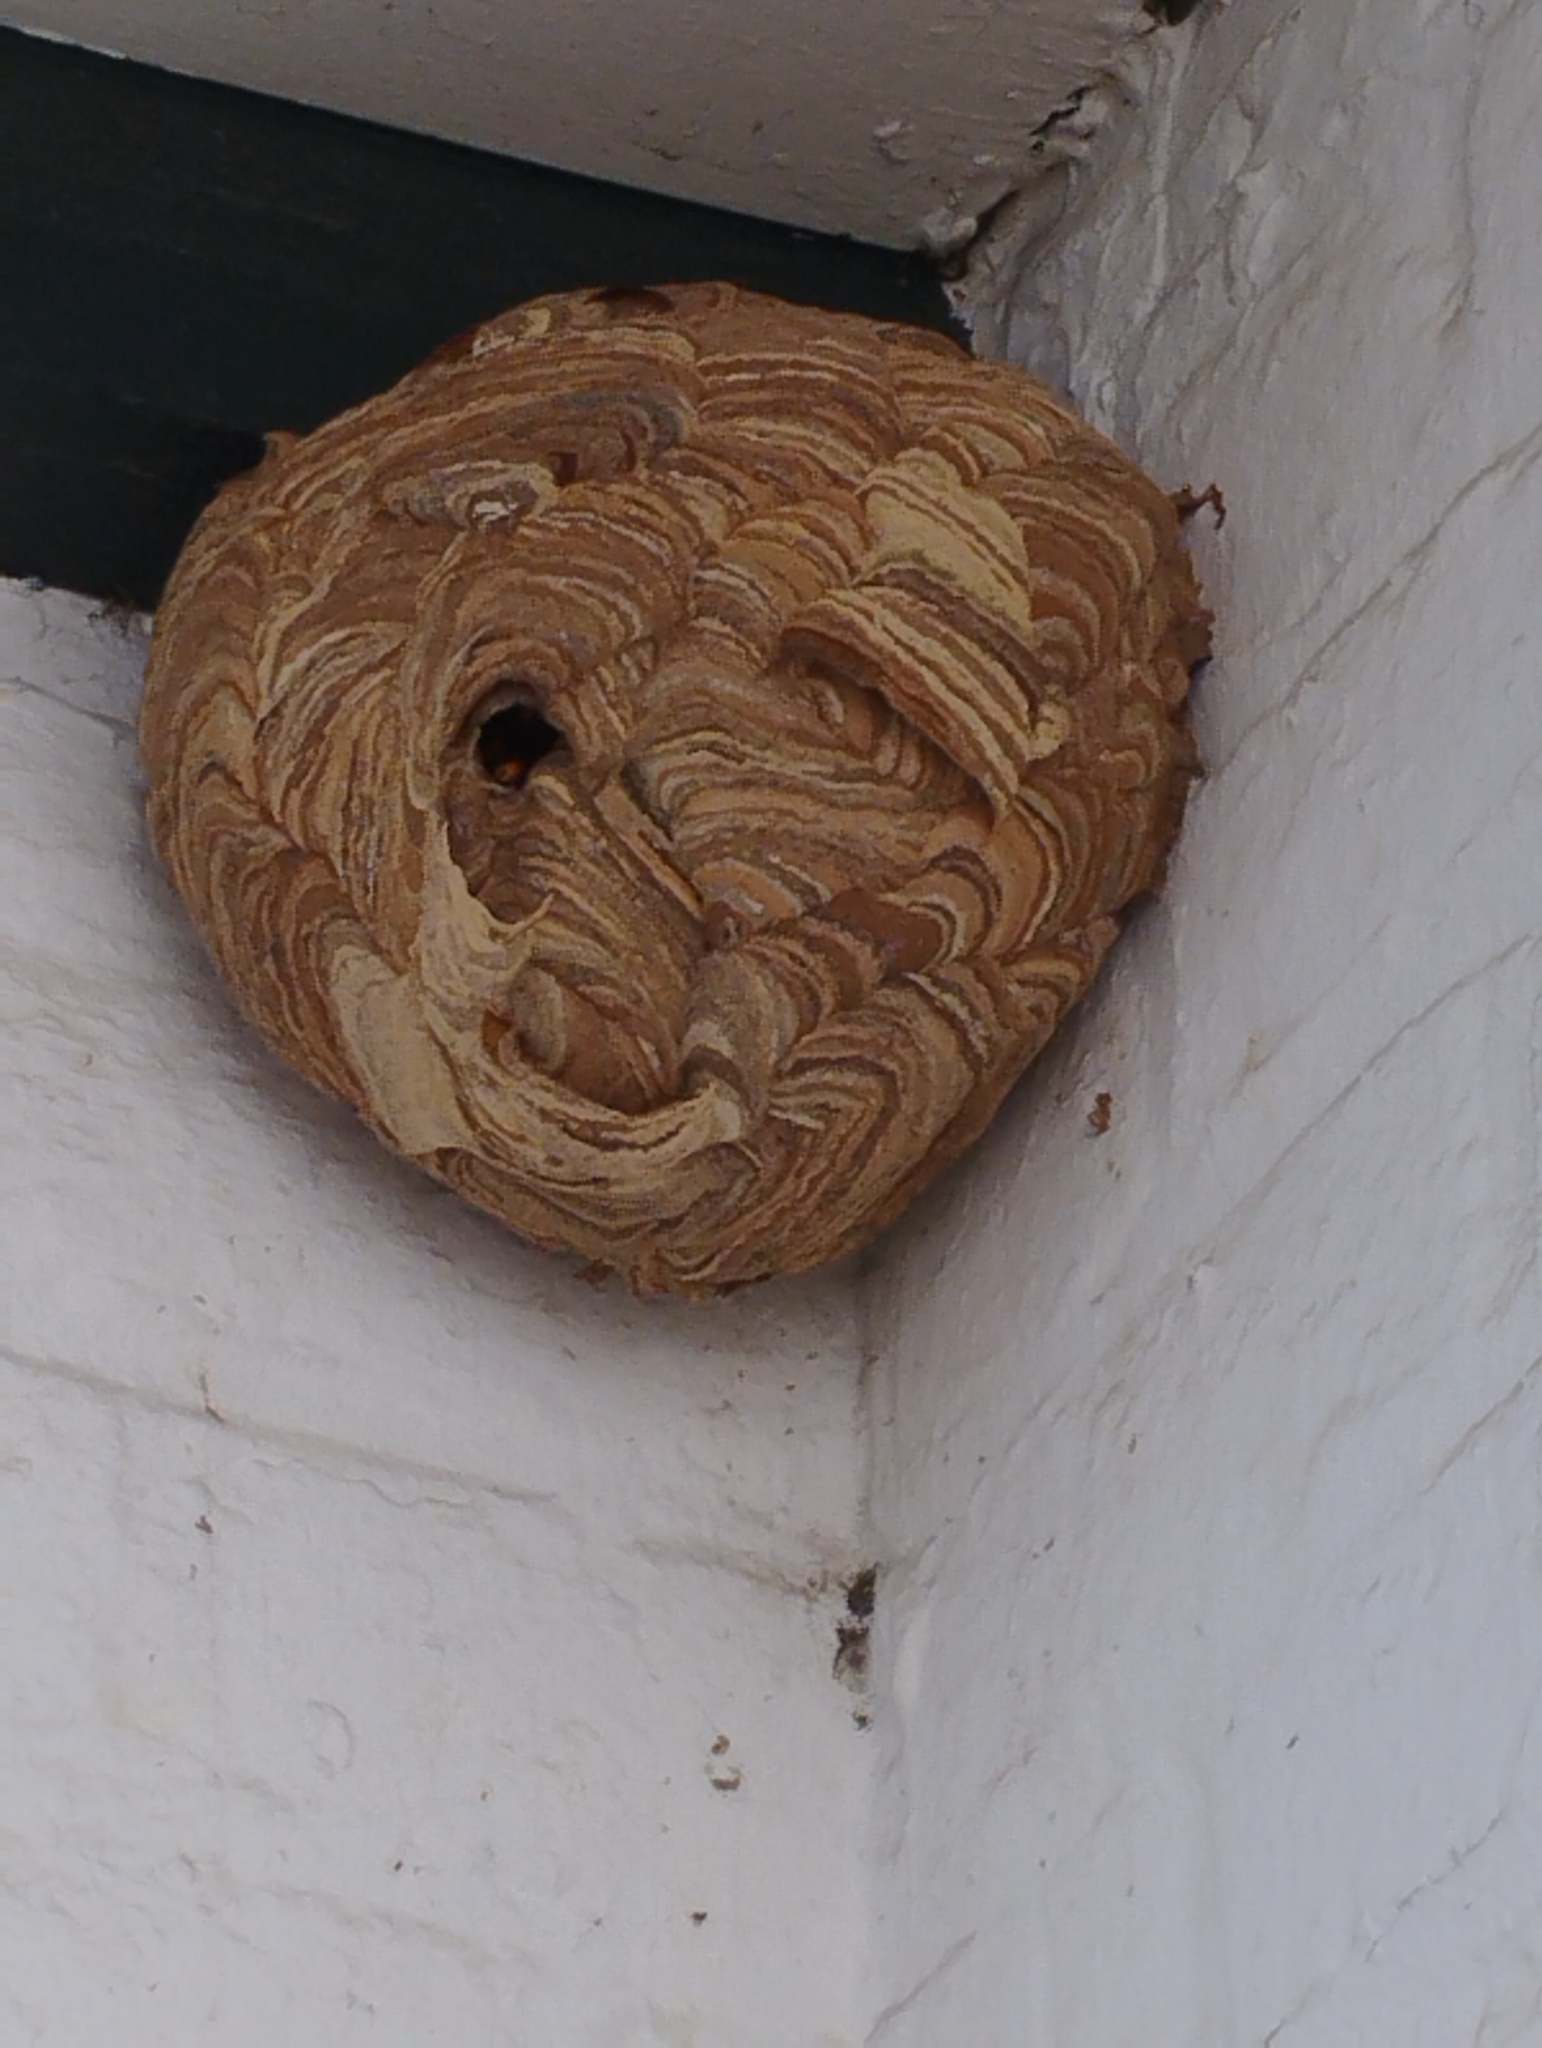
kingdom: Animalia
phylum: Arthropoda
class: Insecta
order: Hymenoptera
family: Vespidae
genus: Vespa
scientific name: Vespa velutina
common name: Asian hornet
